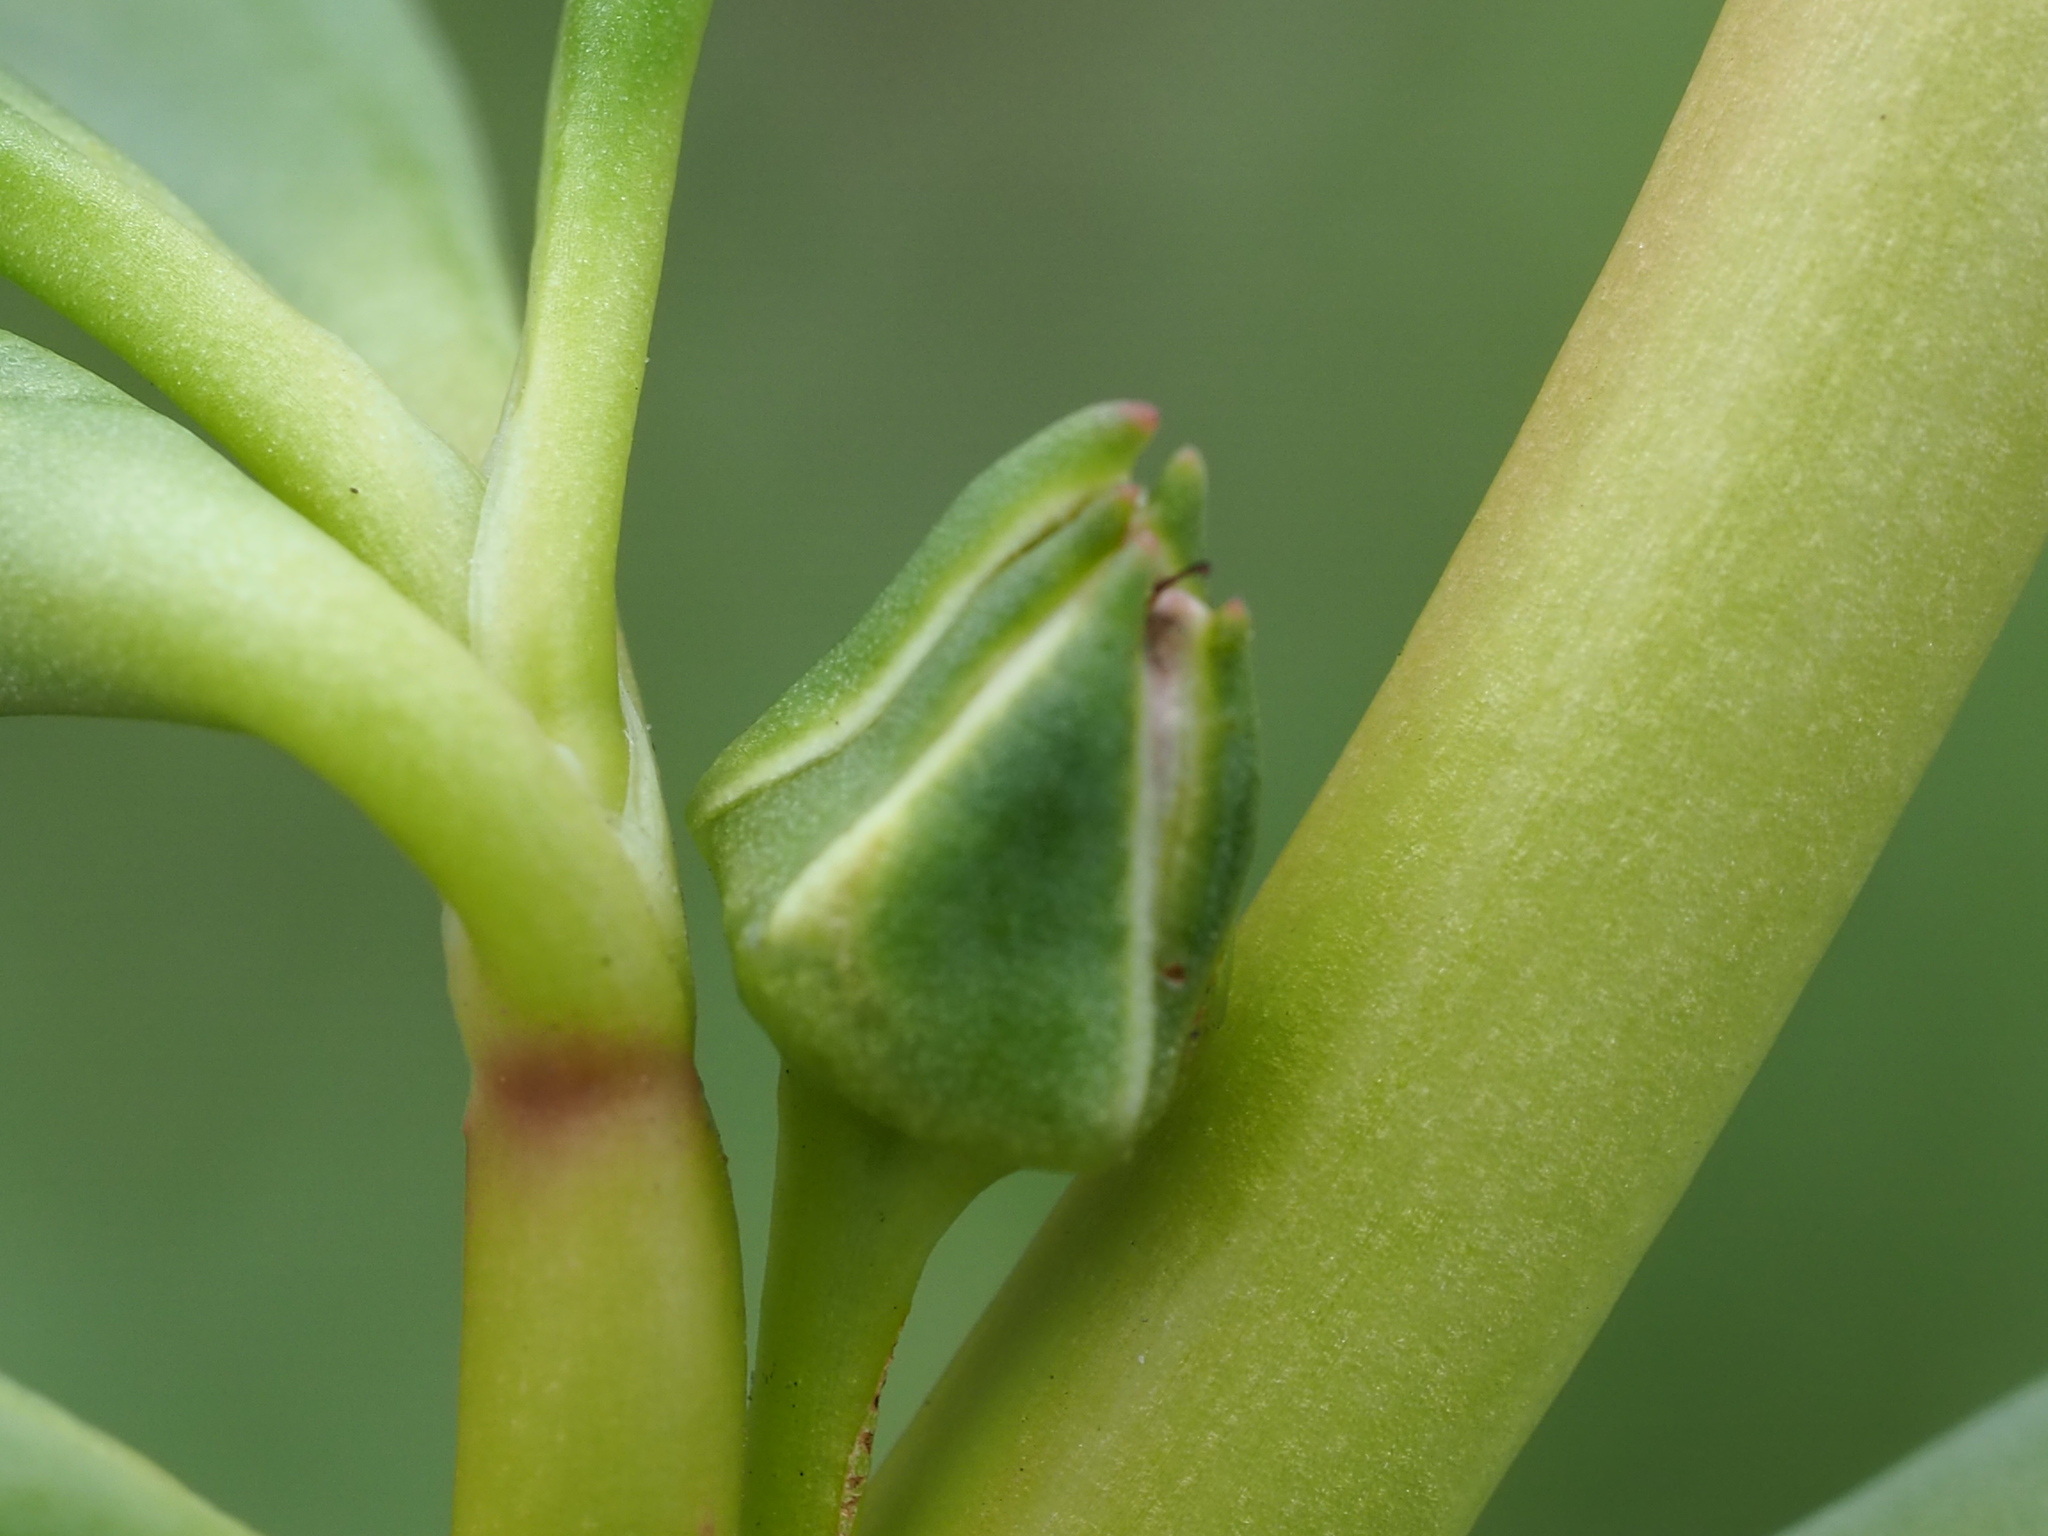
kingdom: Plantae
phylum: Tracheophyta
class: Magnoliopsida
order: Caryophyllales
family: Aizoaceae
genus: Sesuvium
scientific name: Sesuvium portulacastrum
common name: Sea-purslane
